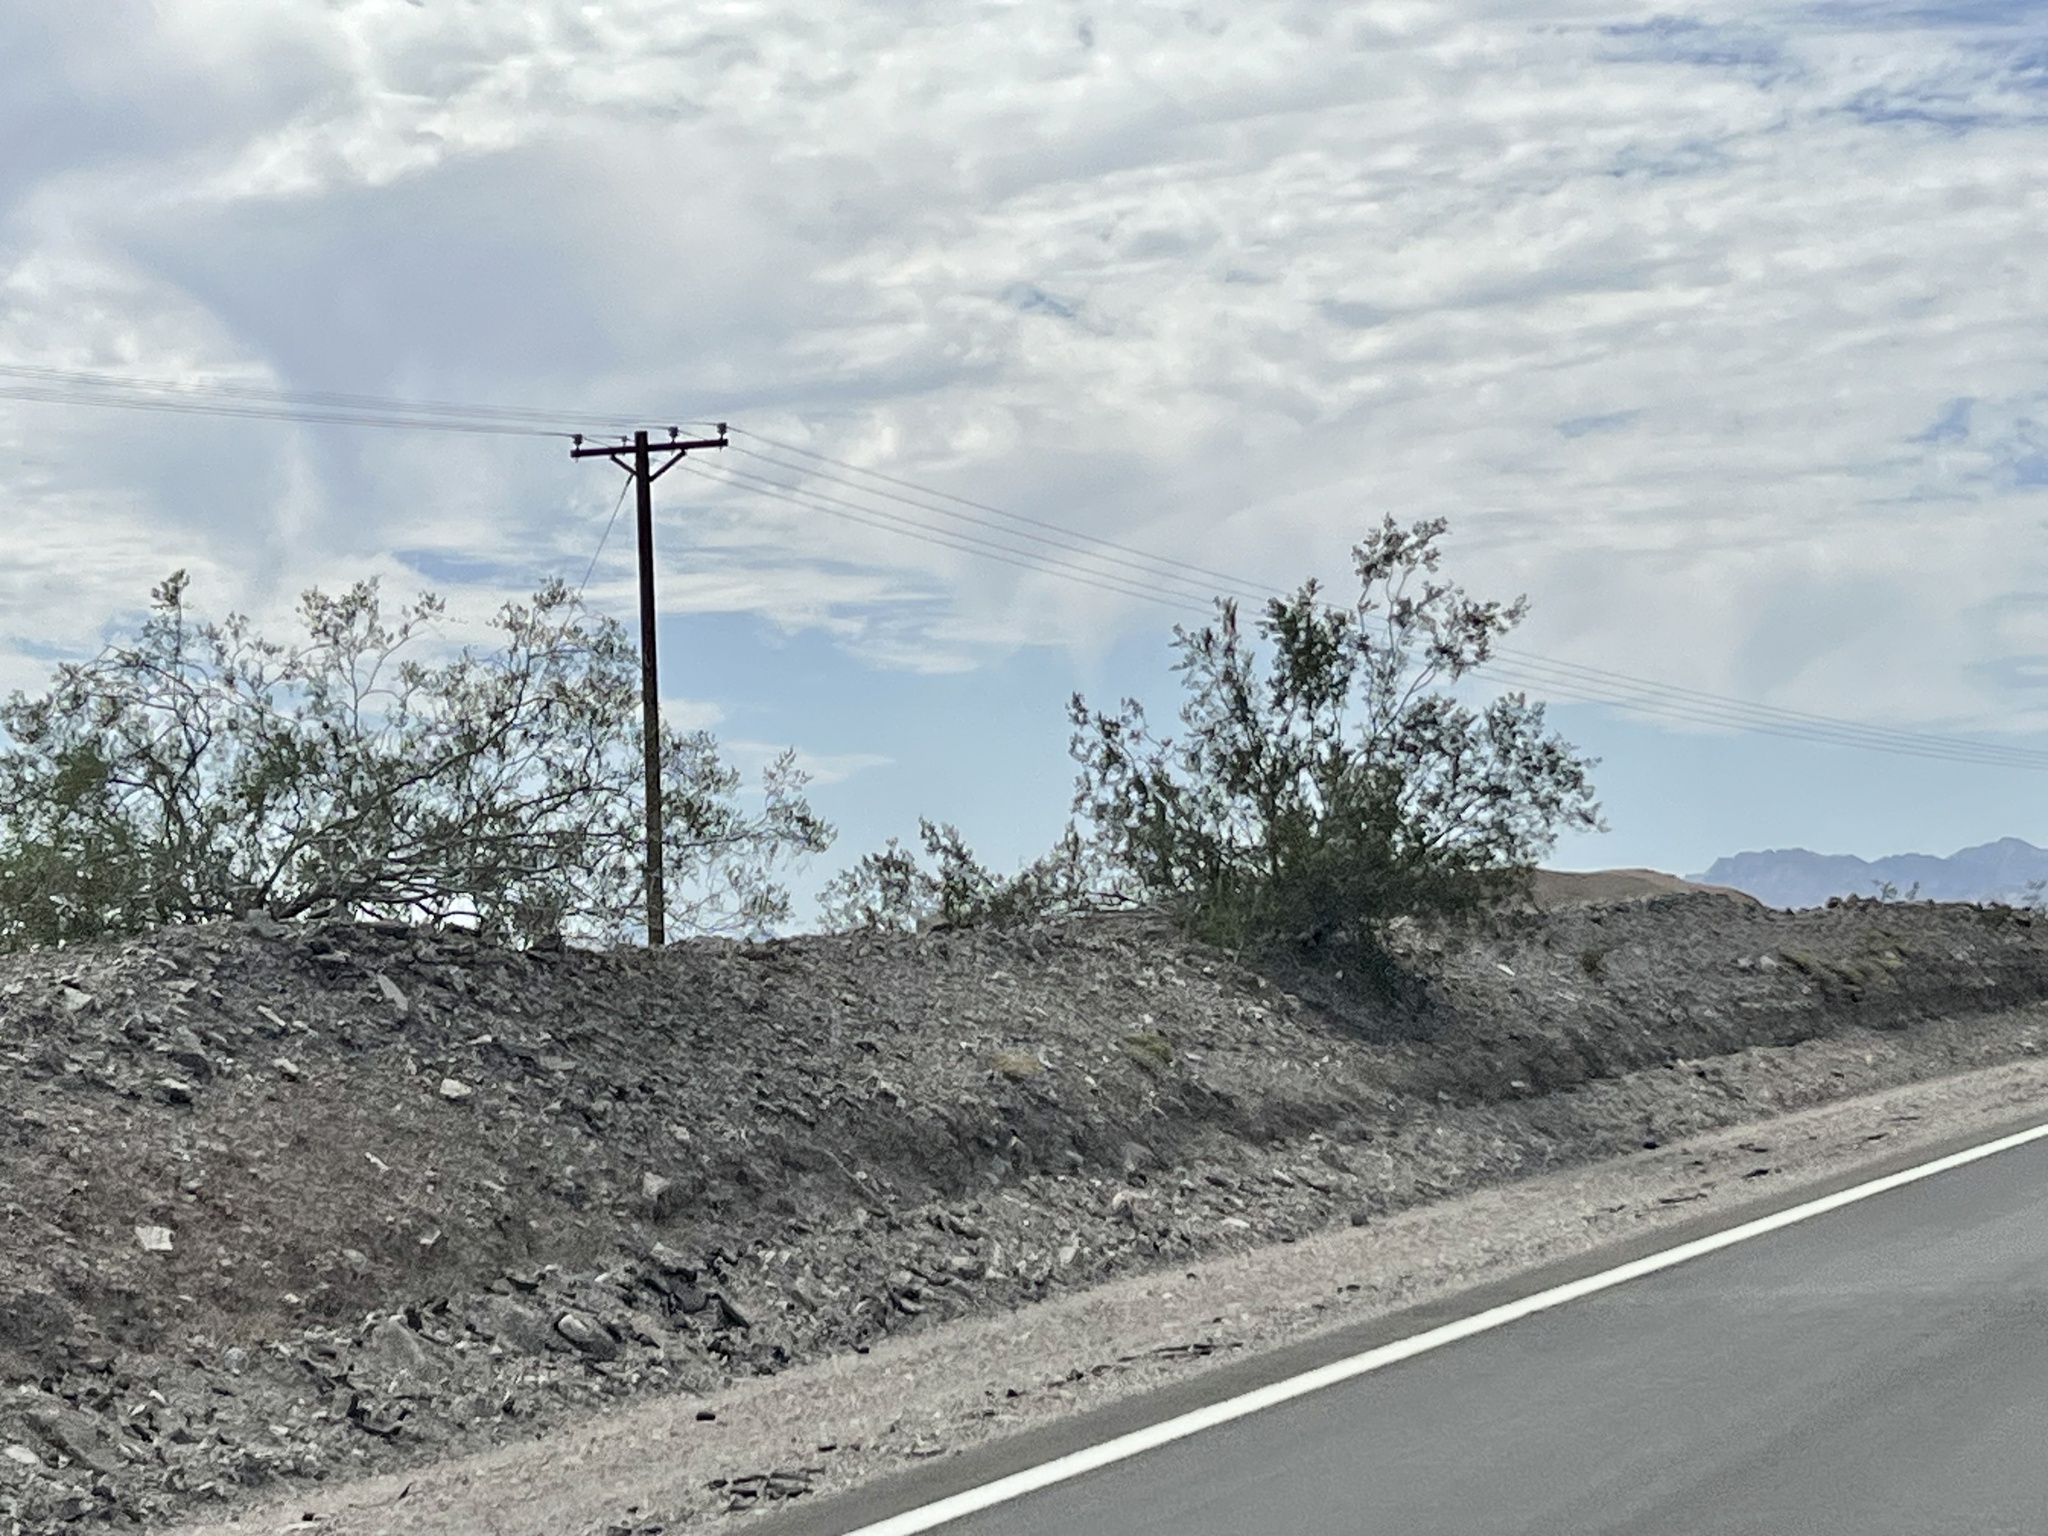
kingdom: Plantae
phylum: Tracheophyta
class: Magnoliopsida
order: Zygophyllales
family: Zygophyllaceae
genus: Larrea
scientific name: Larrea tridentata
